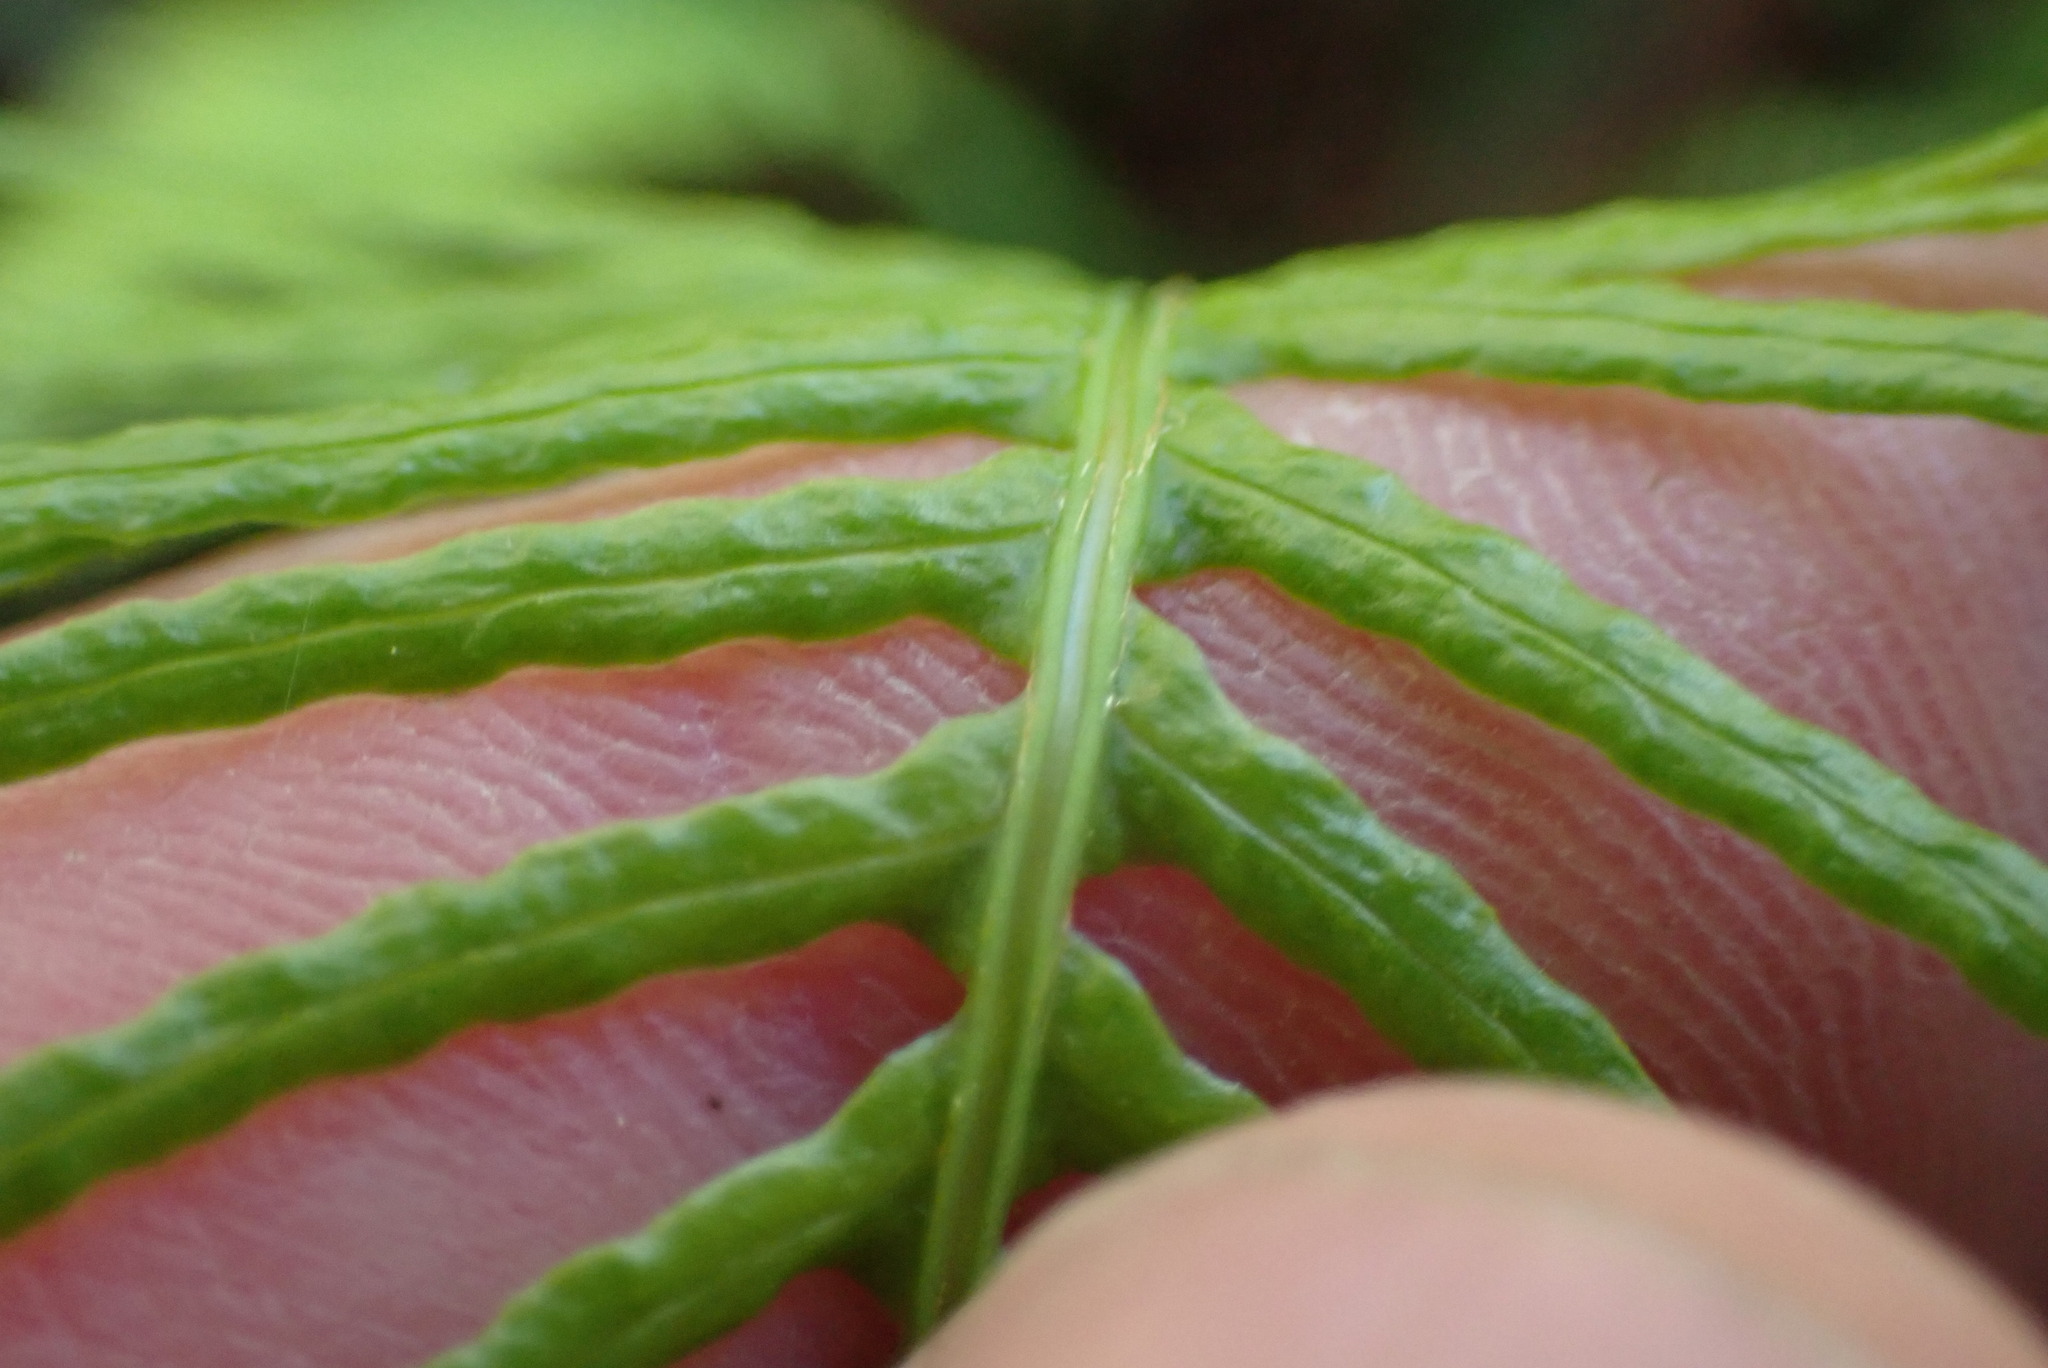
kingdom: Plantae
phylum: Tracheophyta
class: Polypodiopsida
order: Polypodiales
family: Blechnaceae
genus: Struthiopteris
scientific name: Struthiopteris spicant
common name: Deer fern
